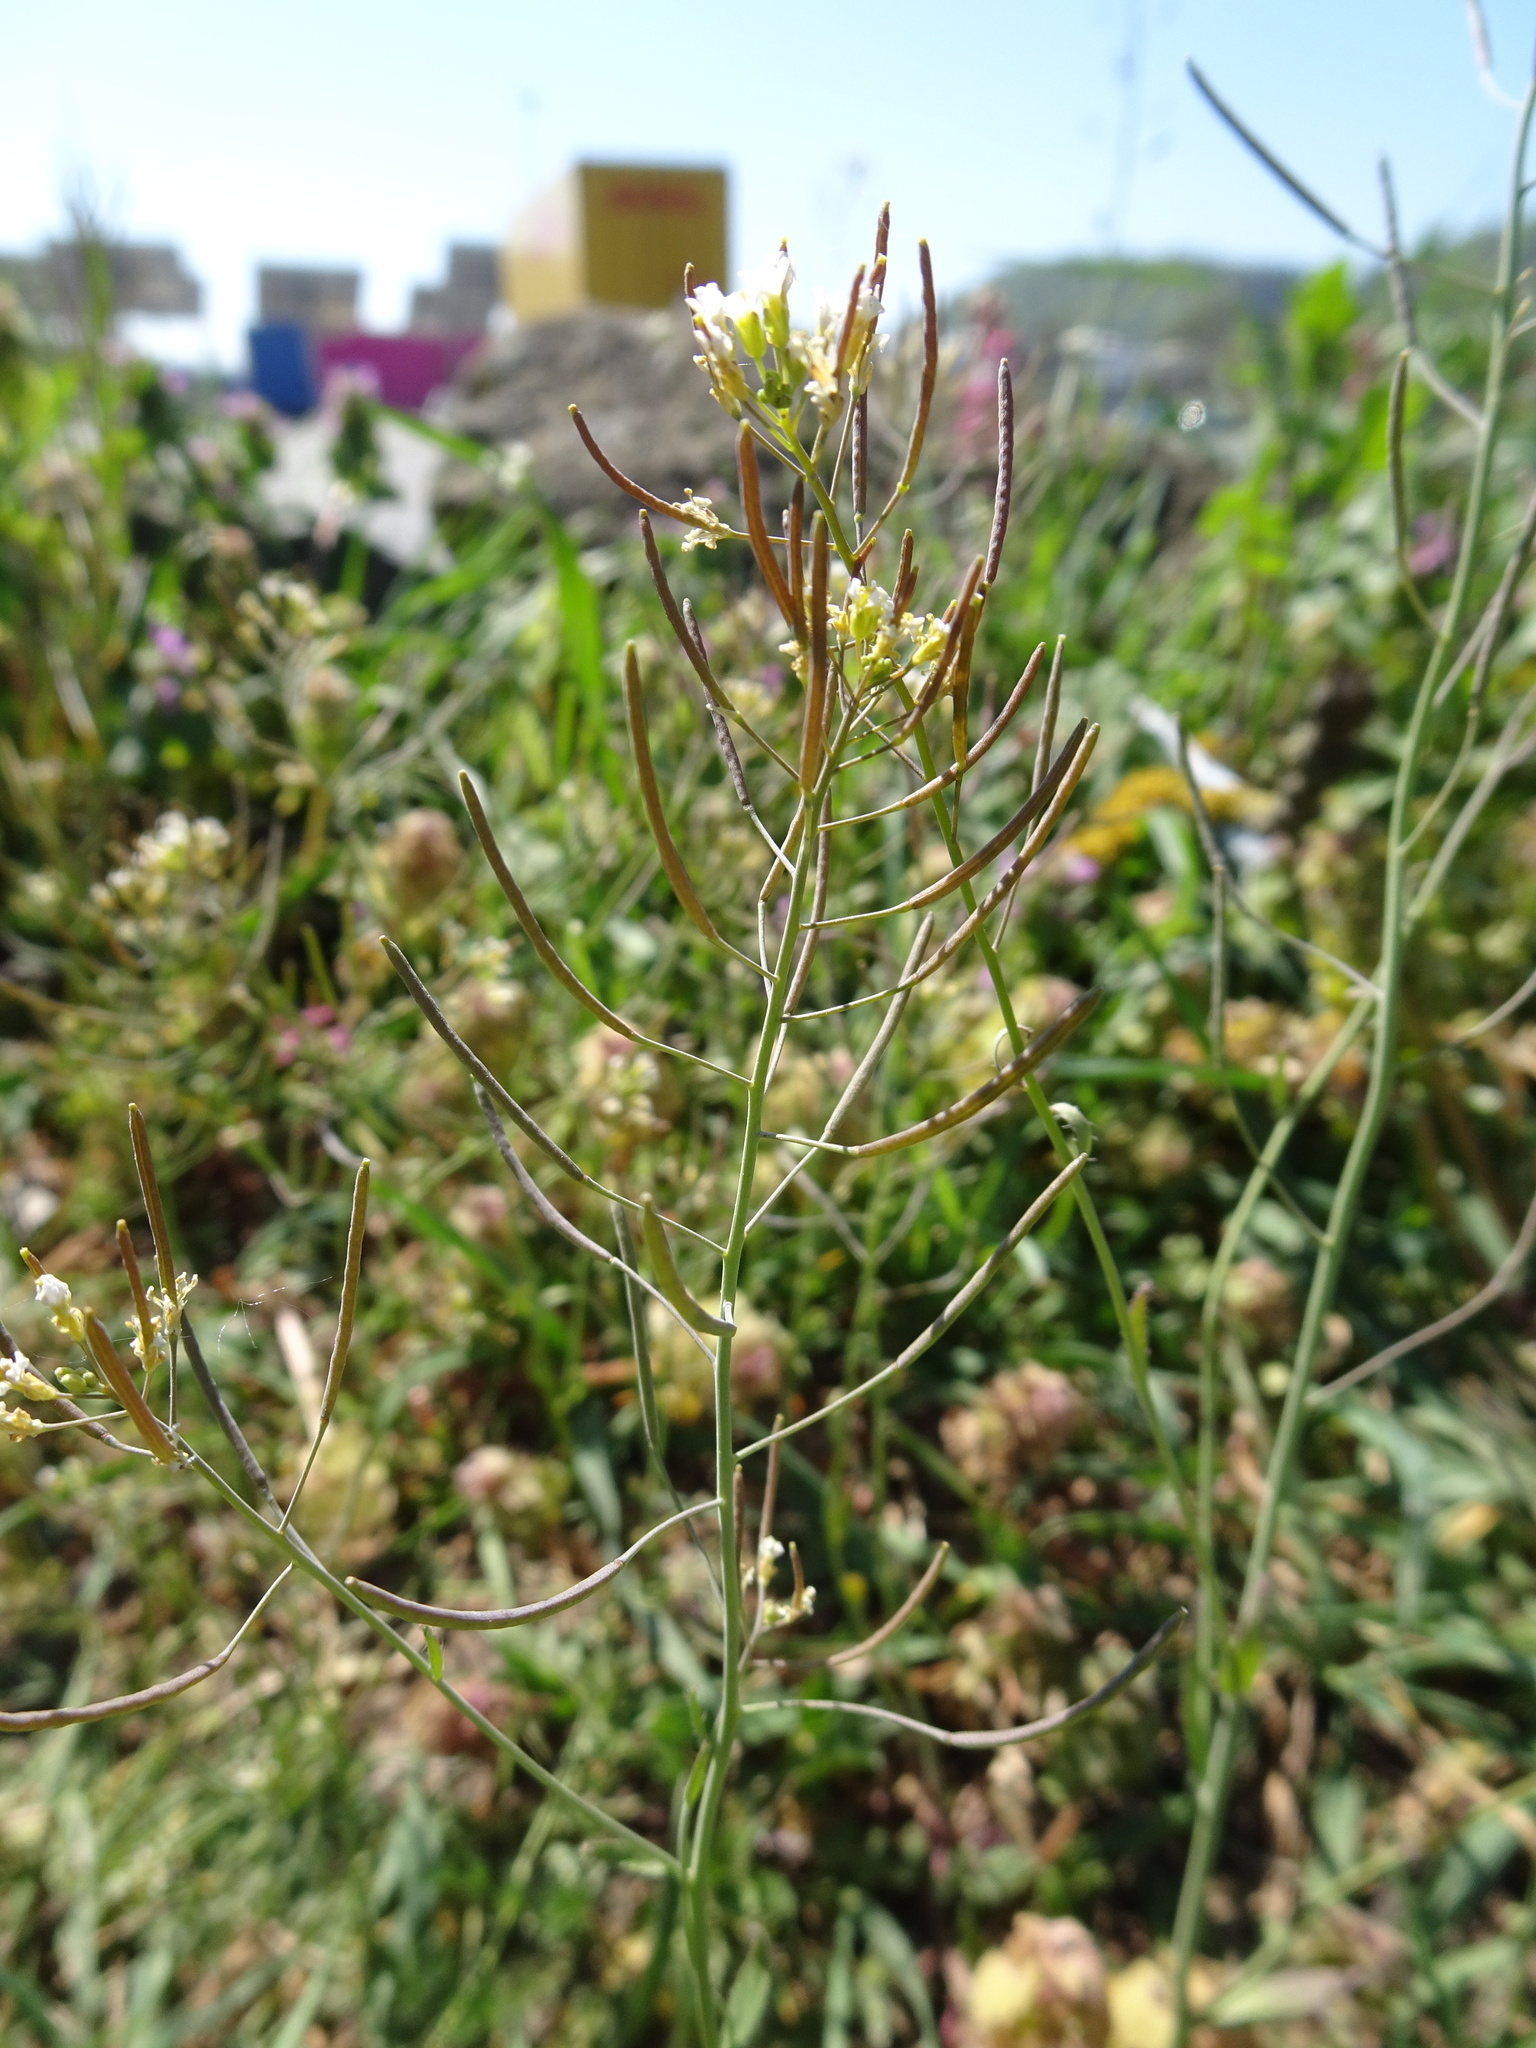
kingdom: Plantae
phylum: Tracheophyta
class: Magnoliopsida
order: Brassicales
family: Brassicaceae
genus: Arabidopsis
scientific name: Arabidopsis thaliana
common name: Thale cress
